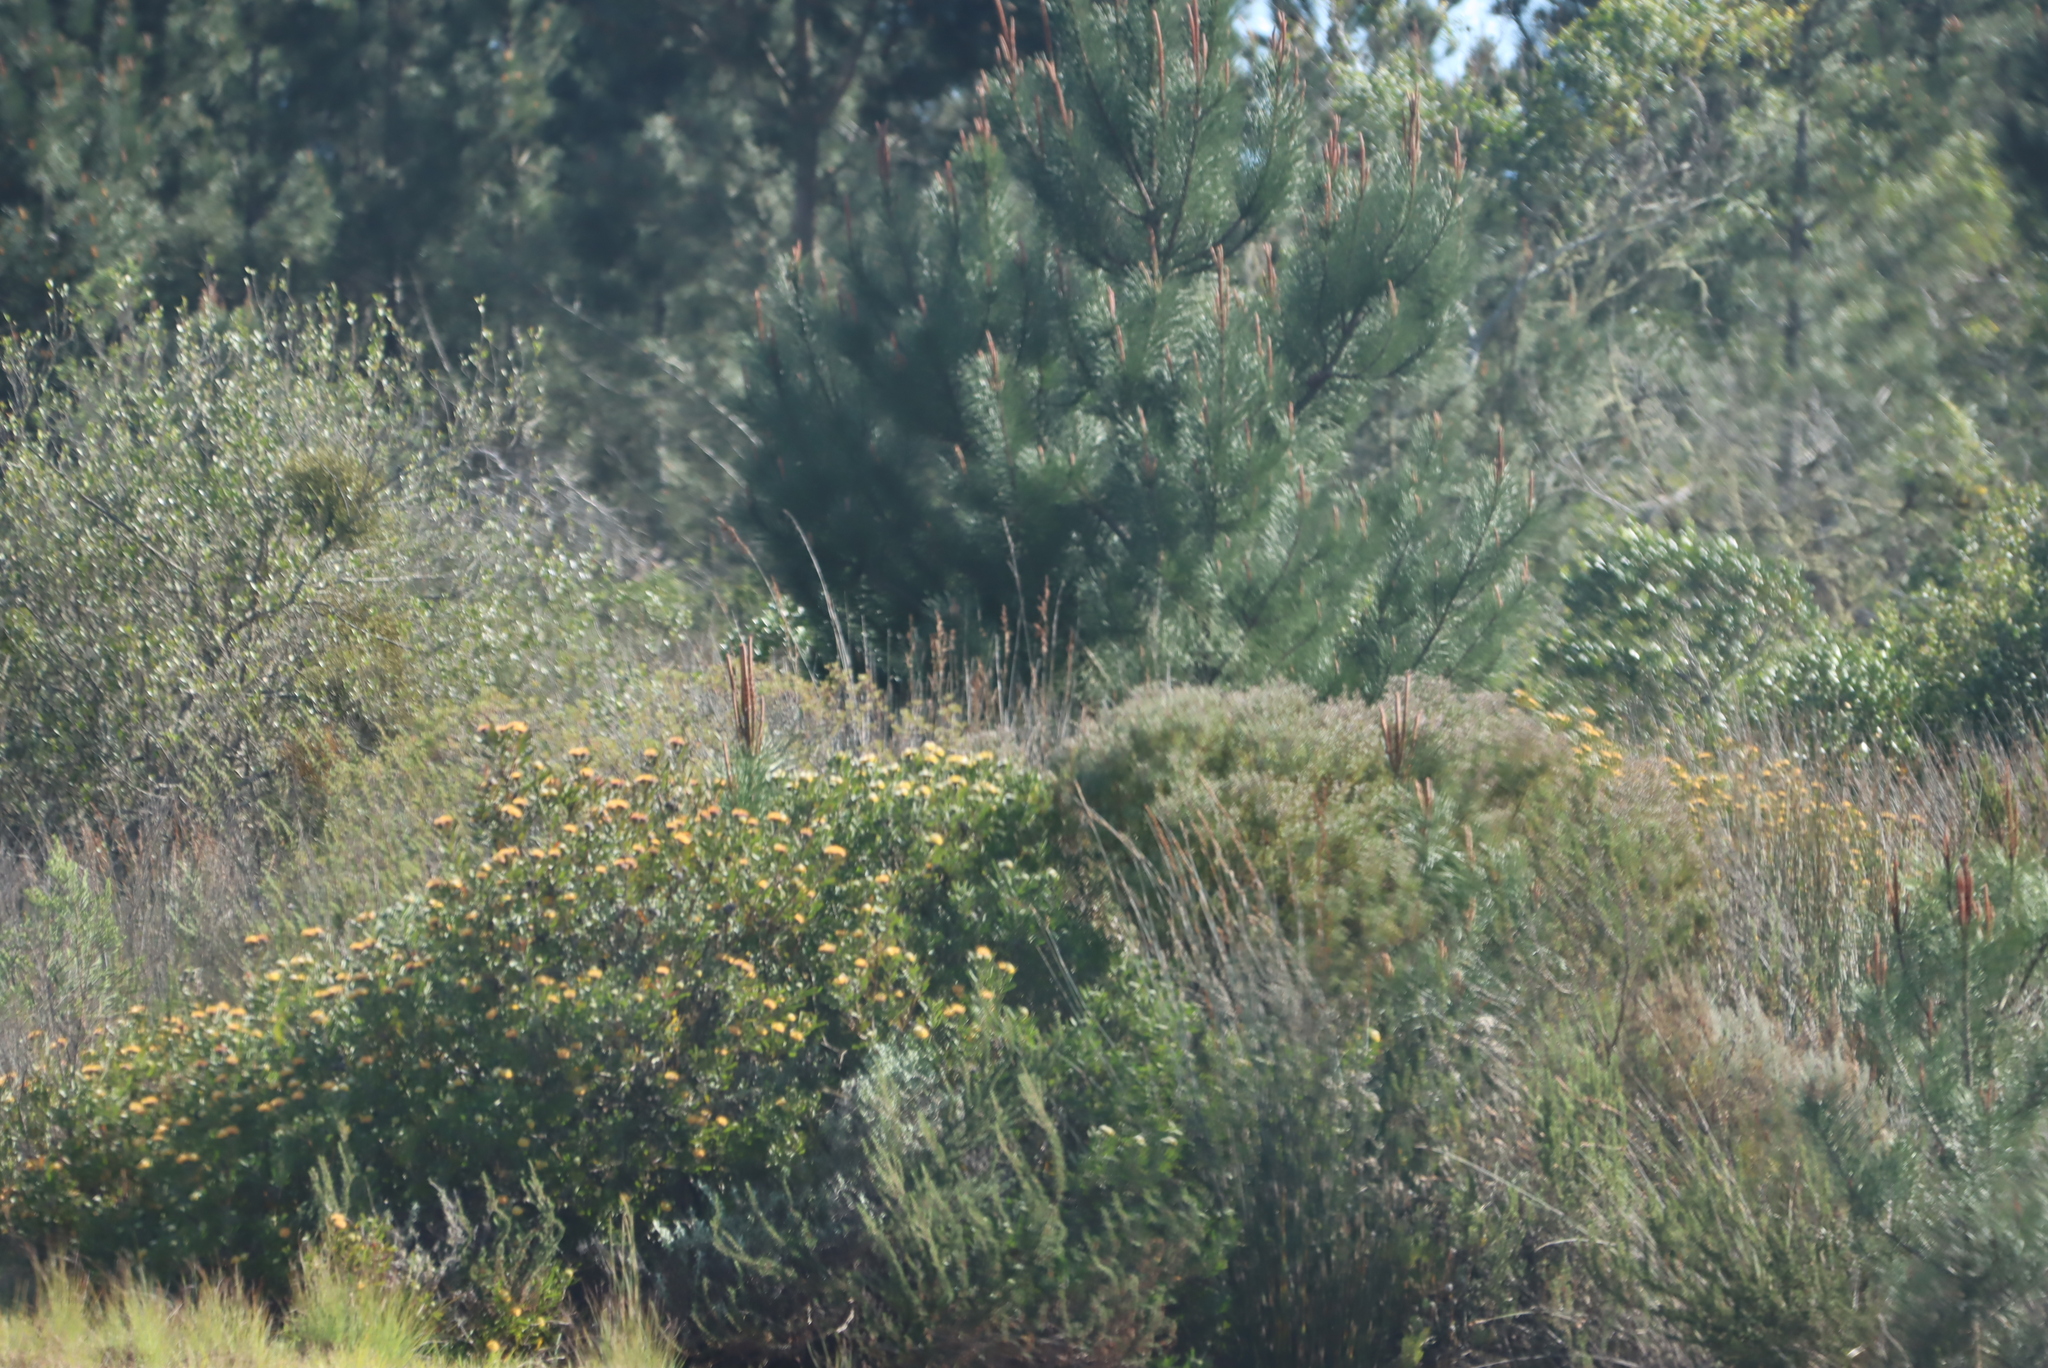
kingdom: Plantae
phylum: Tracheophyta
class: Magnoliopsida
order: Proteales
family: Proteaceae
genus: Leucadendron
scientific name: Leucadendron galpinii
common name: Hairless conebush
